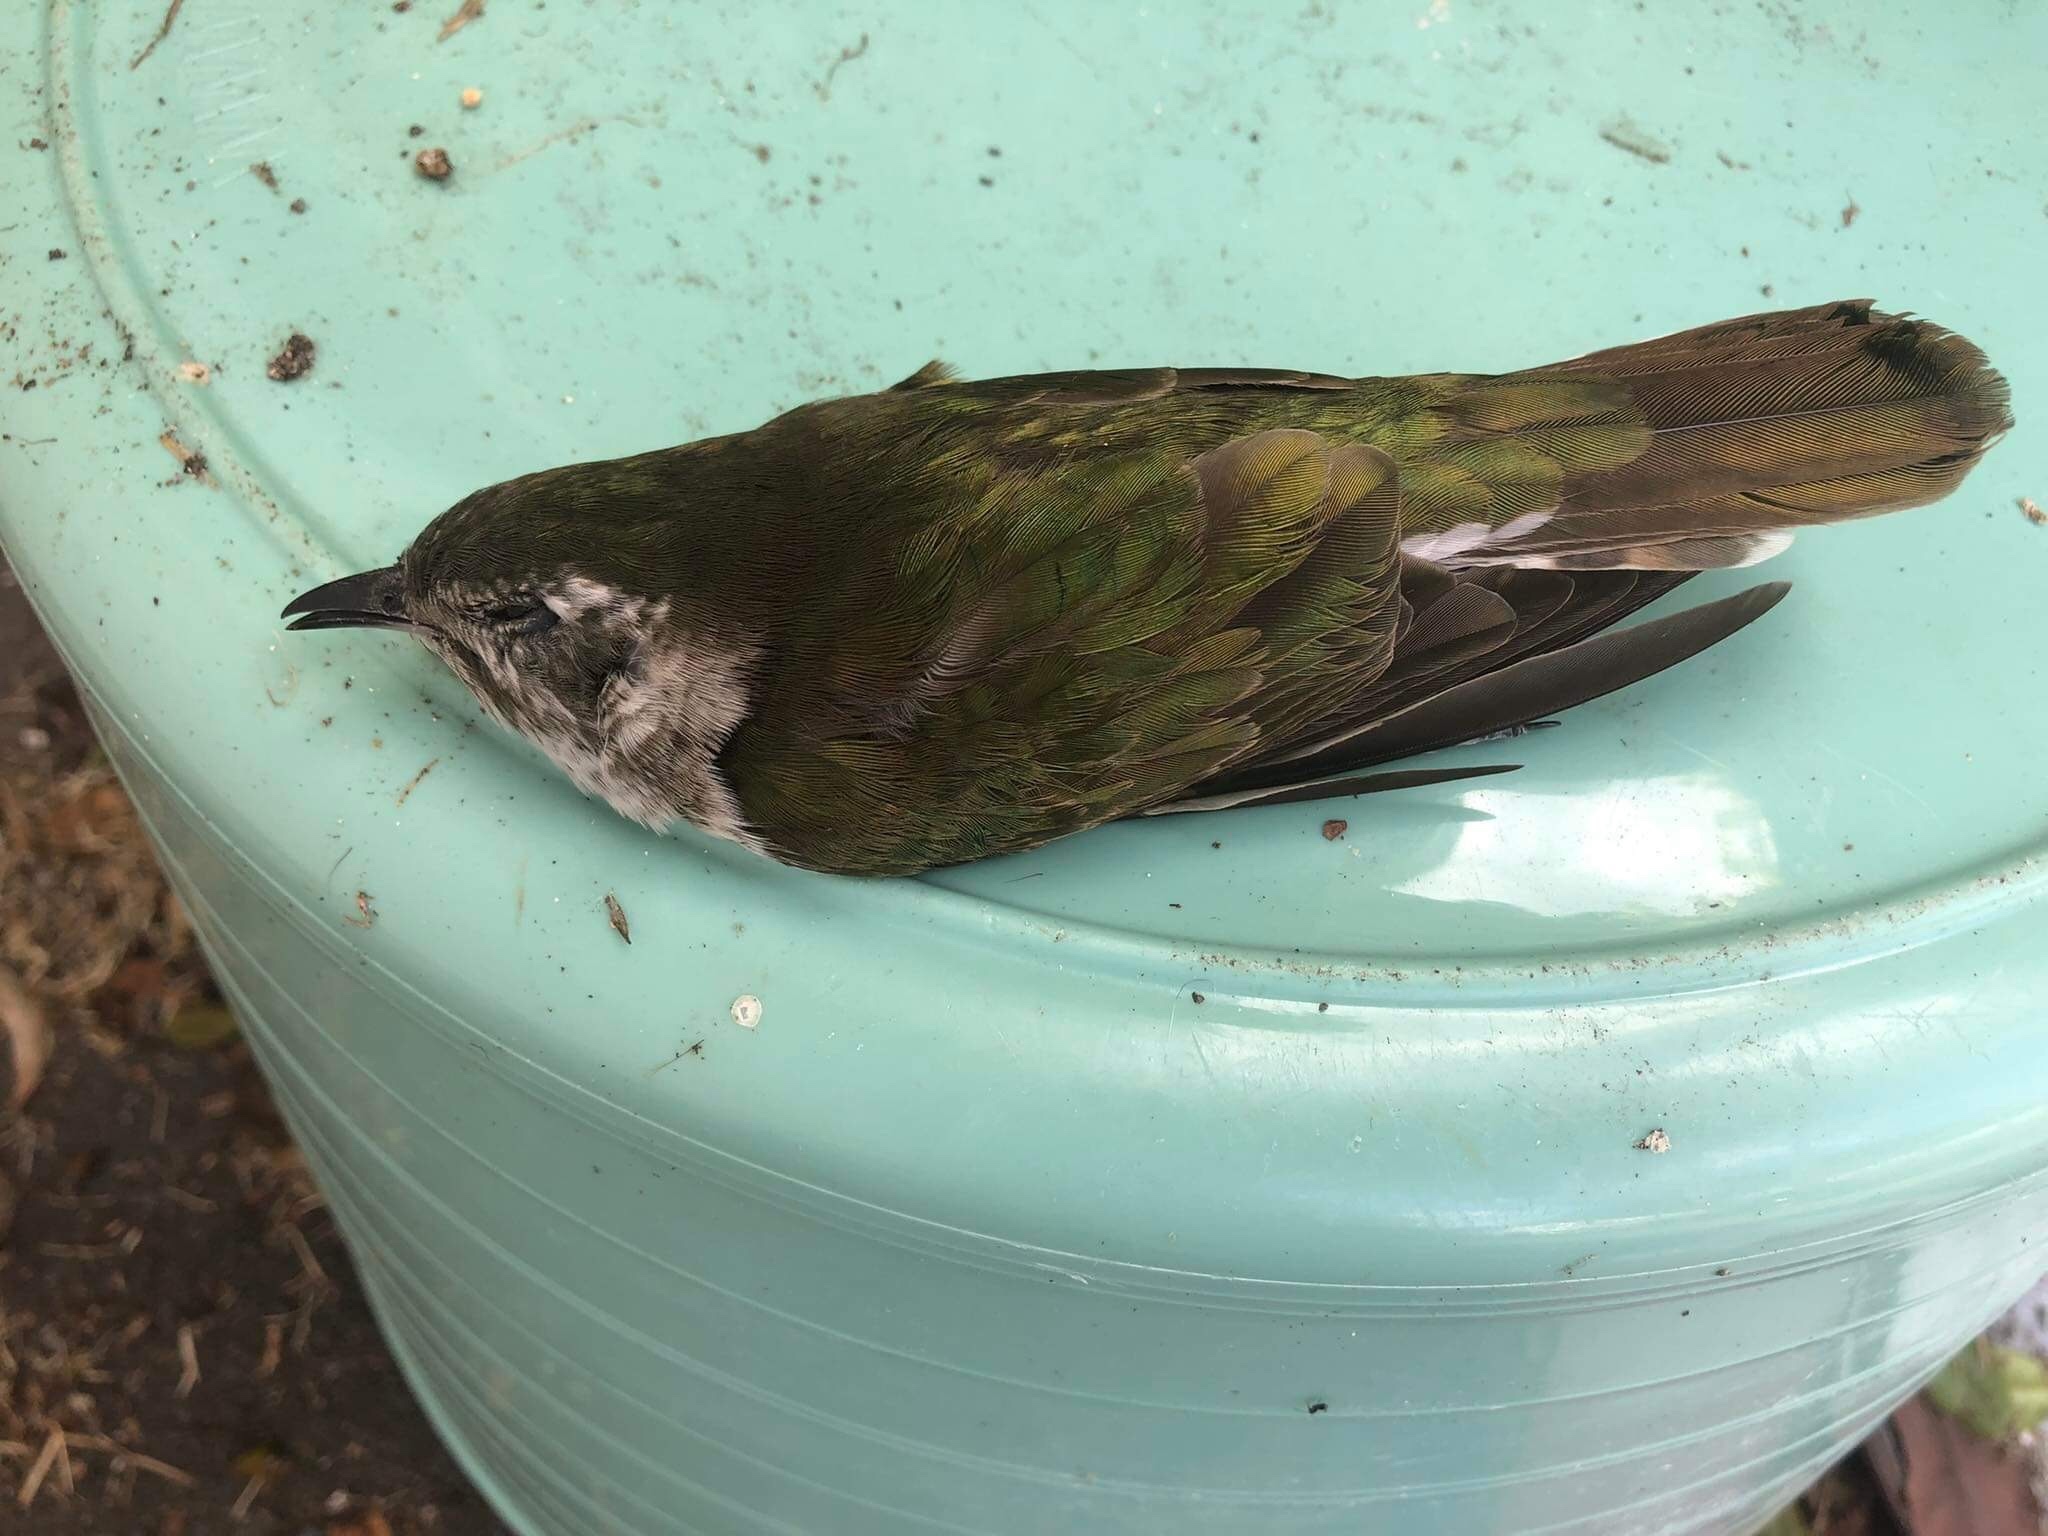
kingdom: Animalia
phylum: Chordata
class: Aves
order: Cuculiformes
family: Cuculidae
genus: Chrysococcyx
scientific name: Chrysococcyx lucidus
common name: Shining bronze cuckoo
